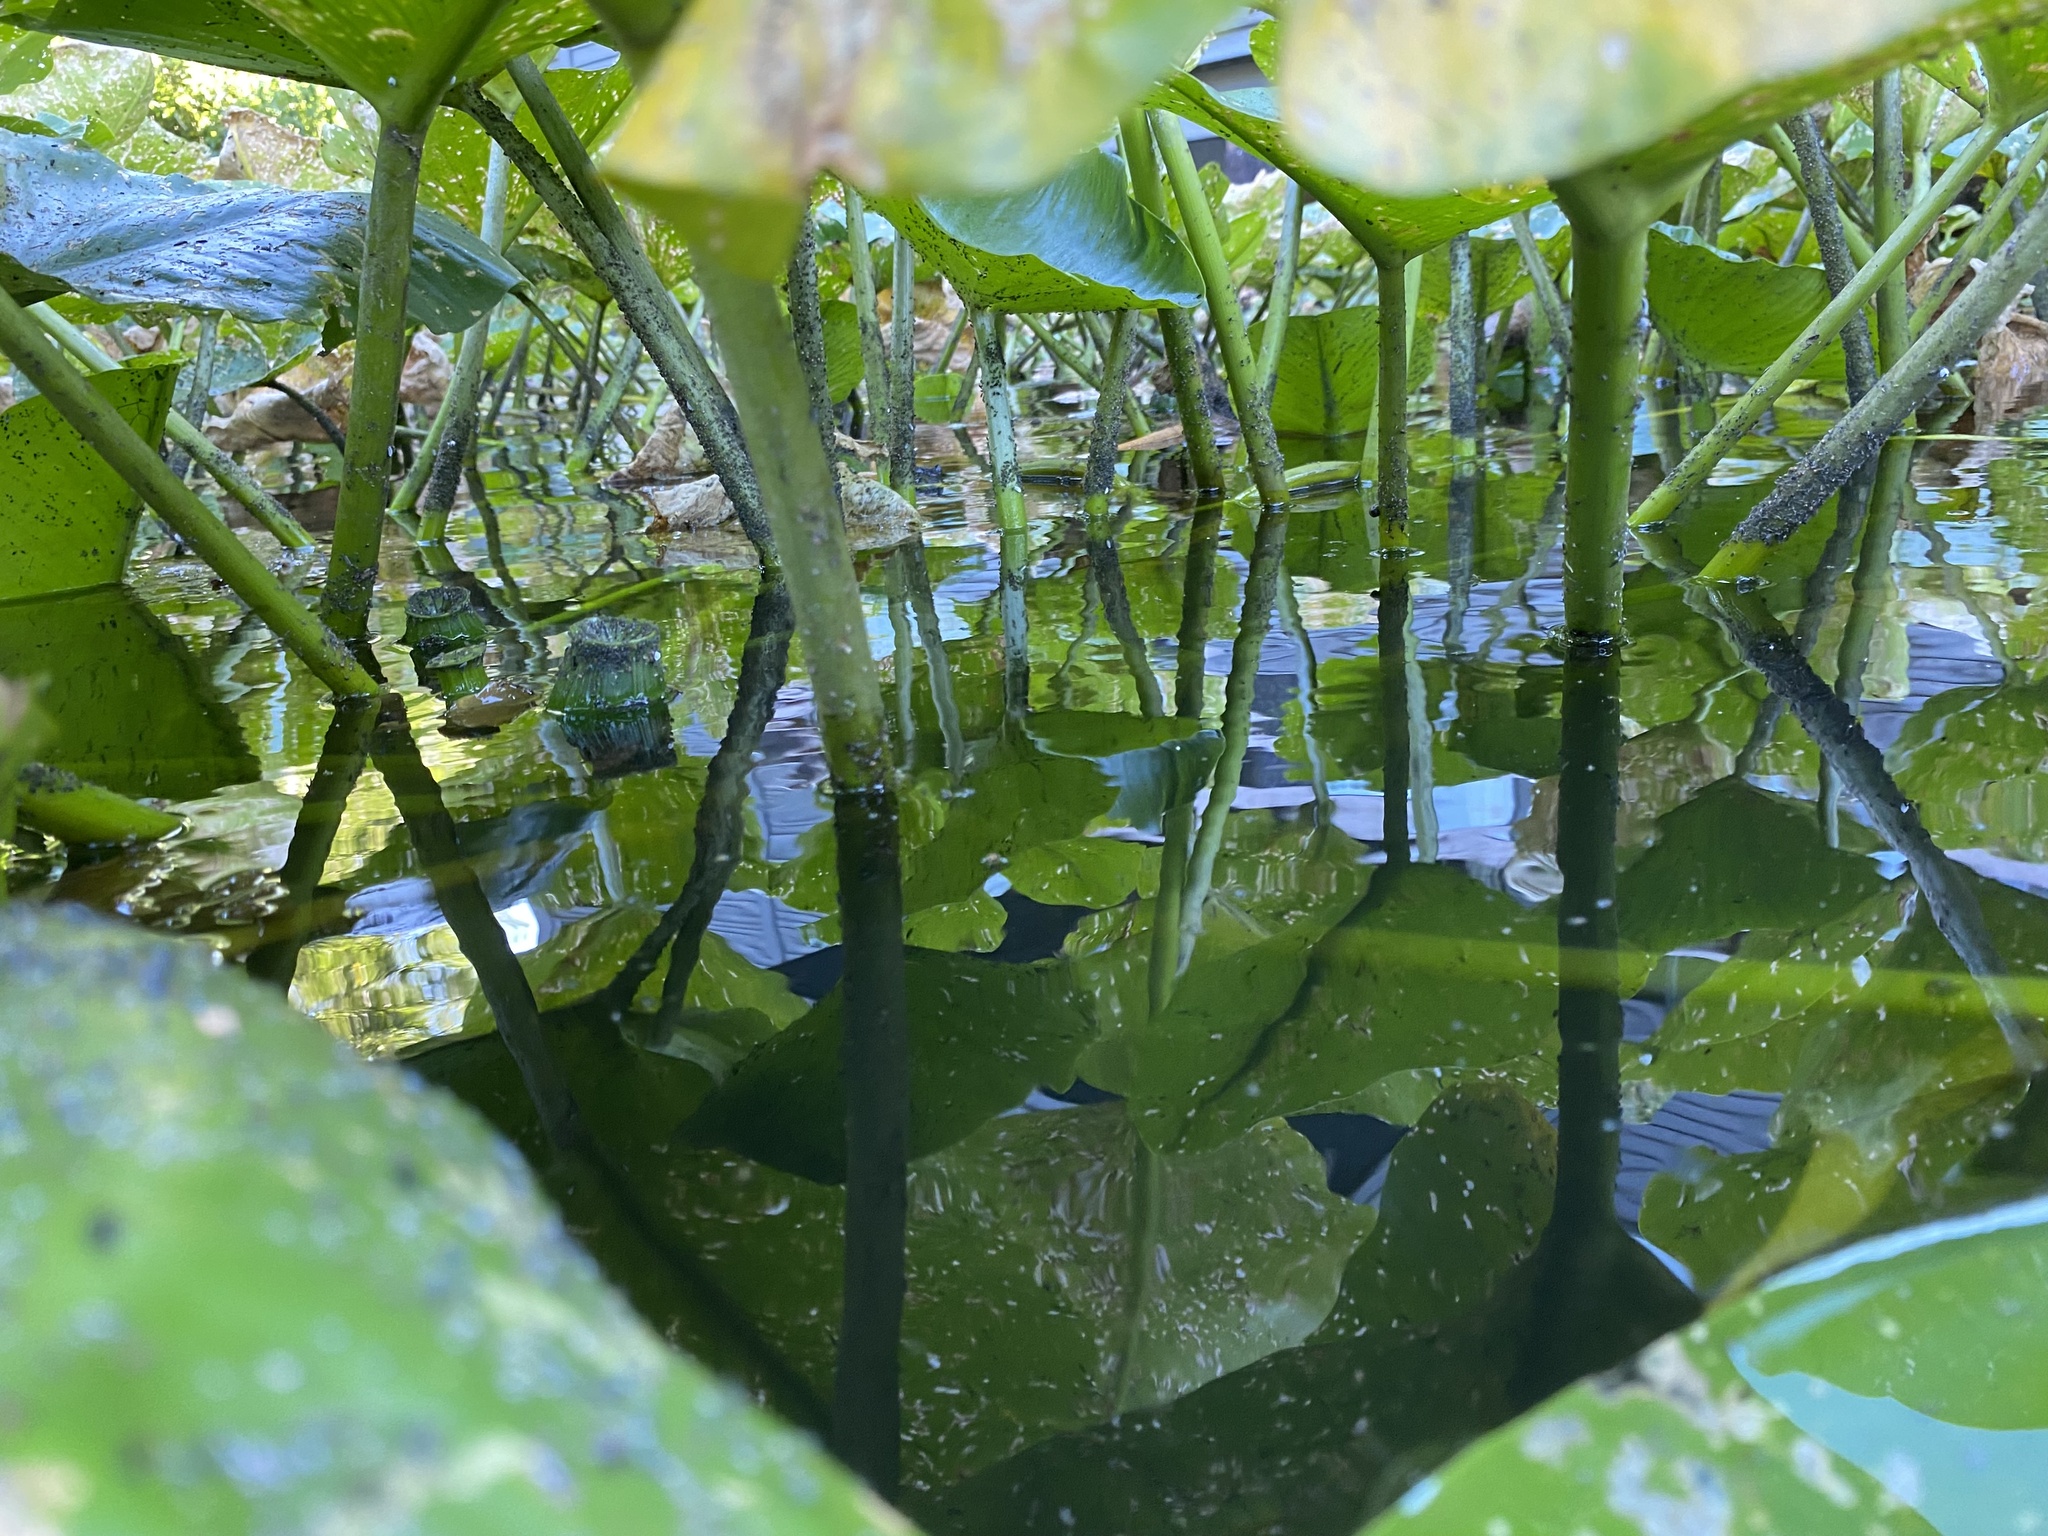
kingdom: Plantae
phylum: Tracheophyta
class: Magnoliopsida
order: Nymphaeales
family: Nymphaeaceae
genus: Nuphar
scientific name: Nuphar polysepala
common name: Rocky mountain cow-lily
